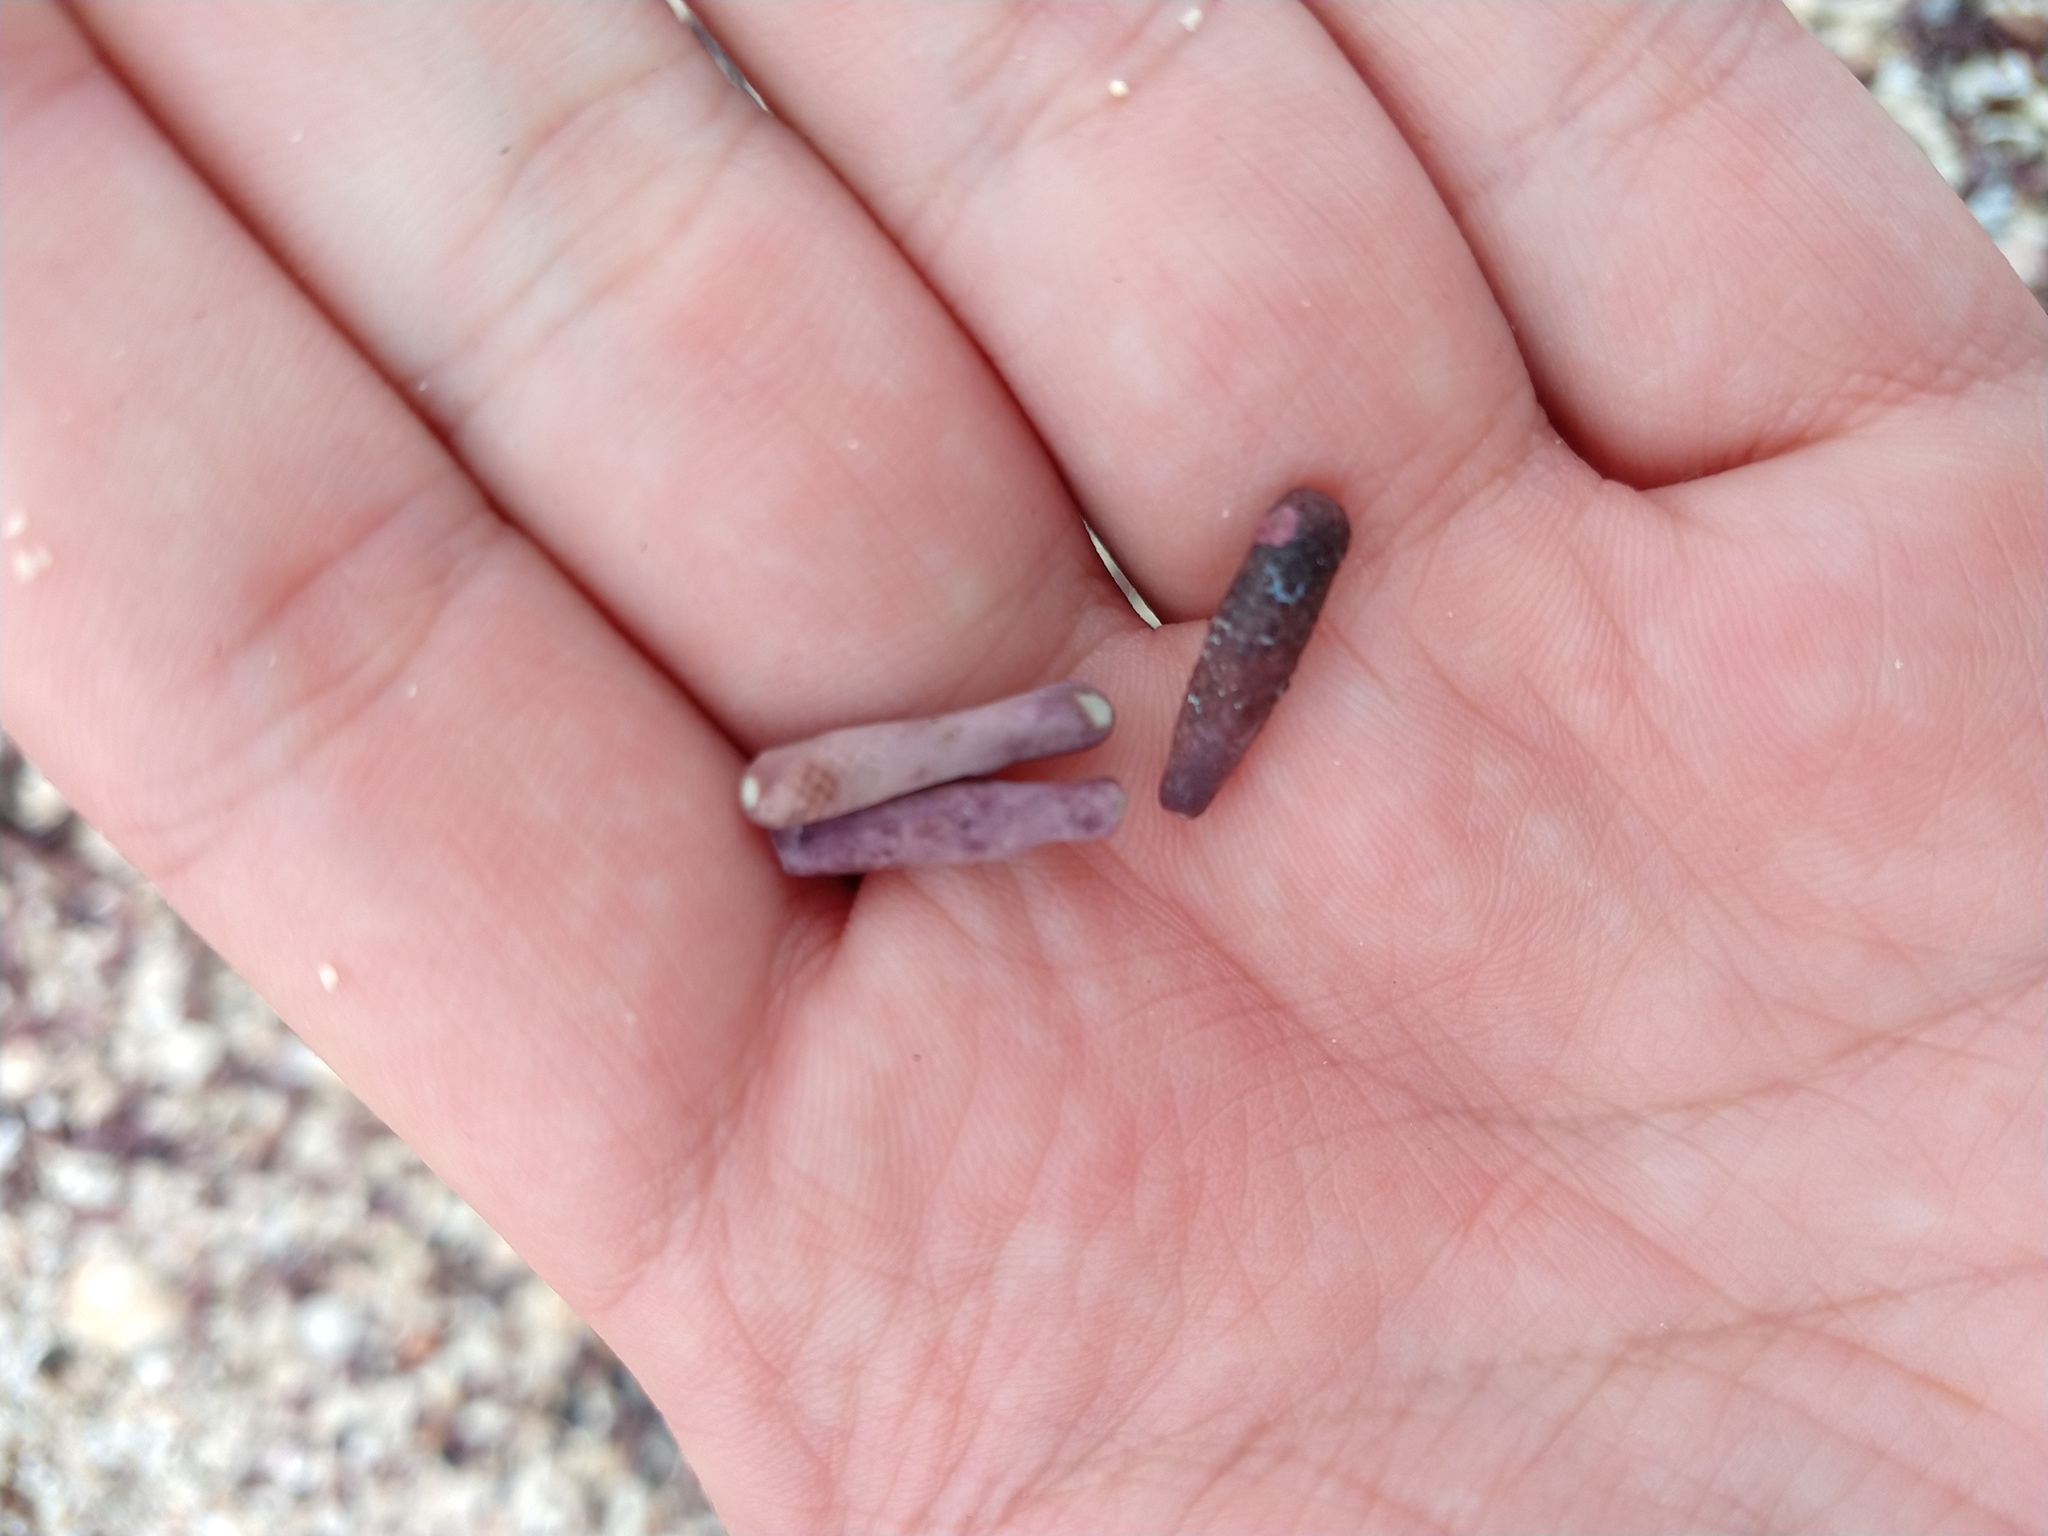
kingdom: Animalia
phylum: Echinodermata
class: Echinoidea
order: Cidaroida
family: Cidaridae
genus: Eucidaris
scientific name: Eucidaris galapagensis
